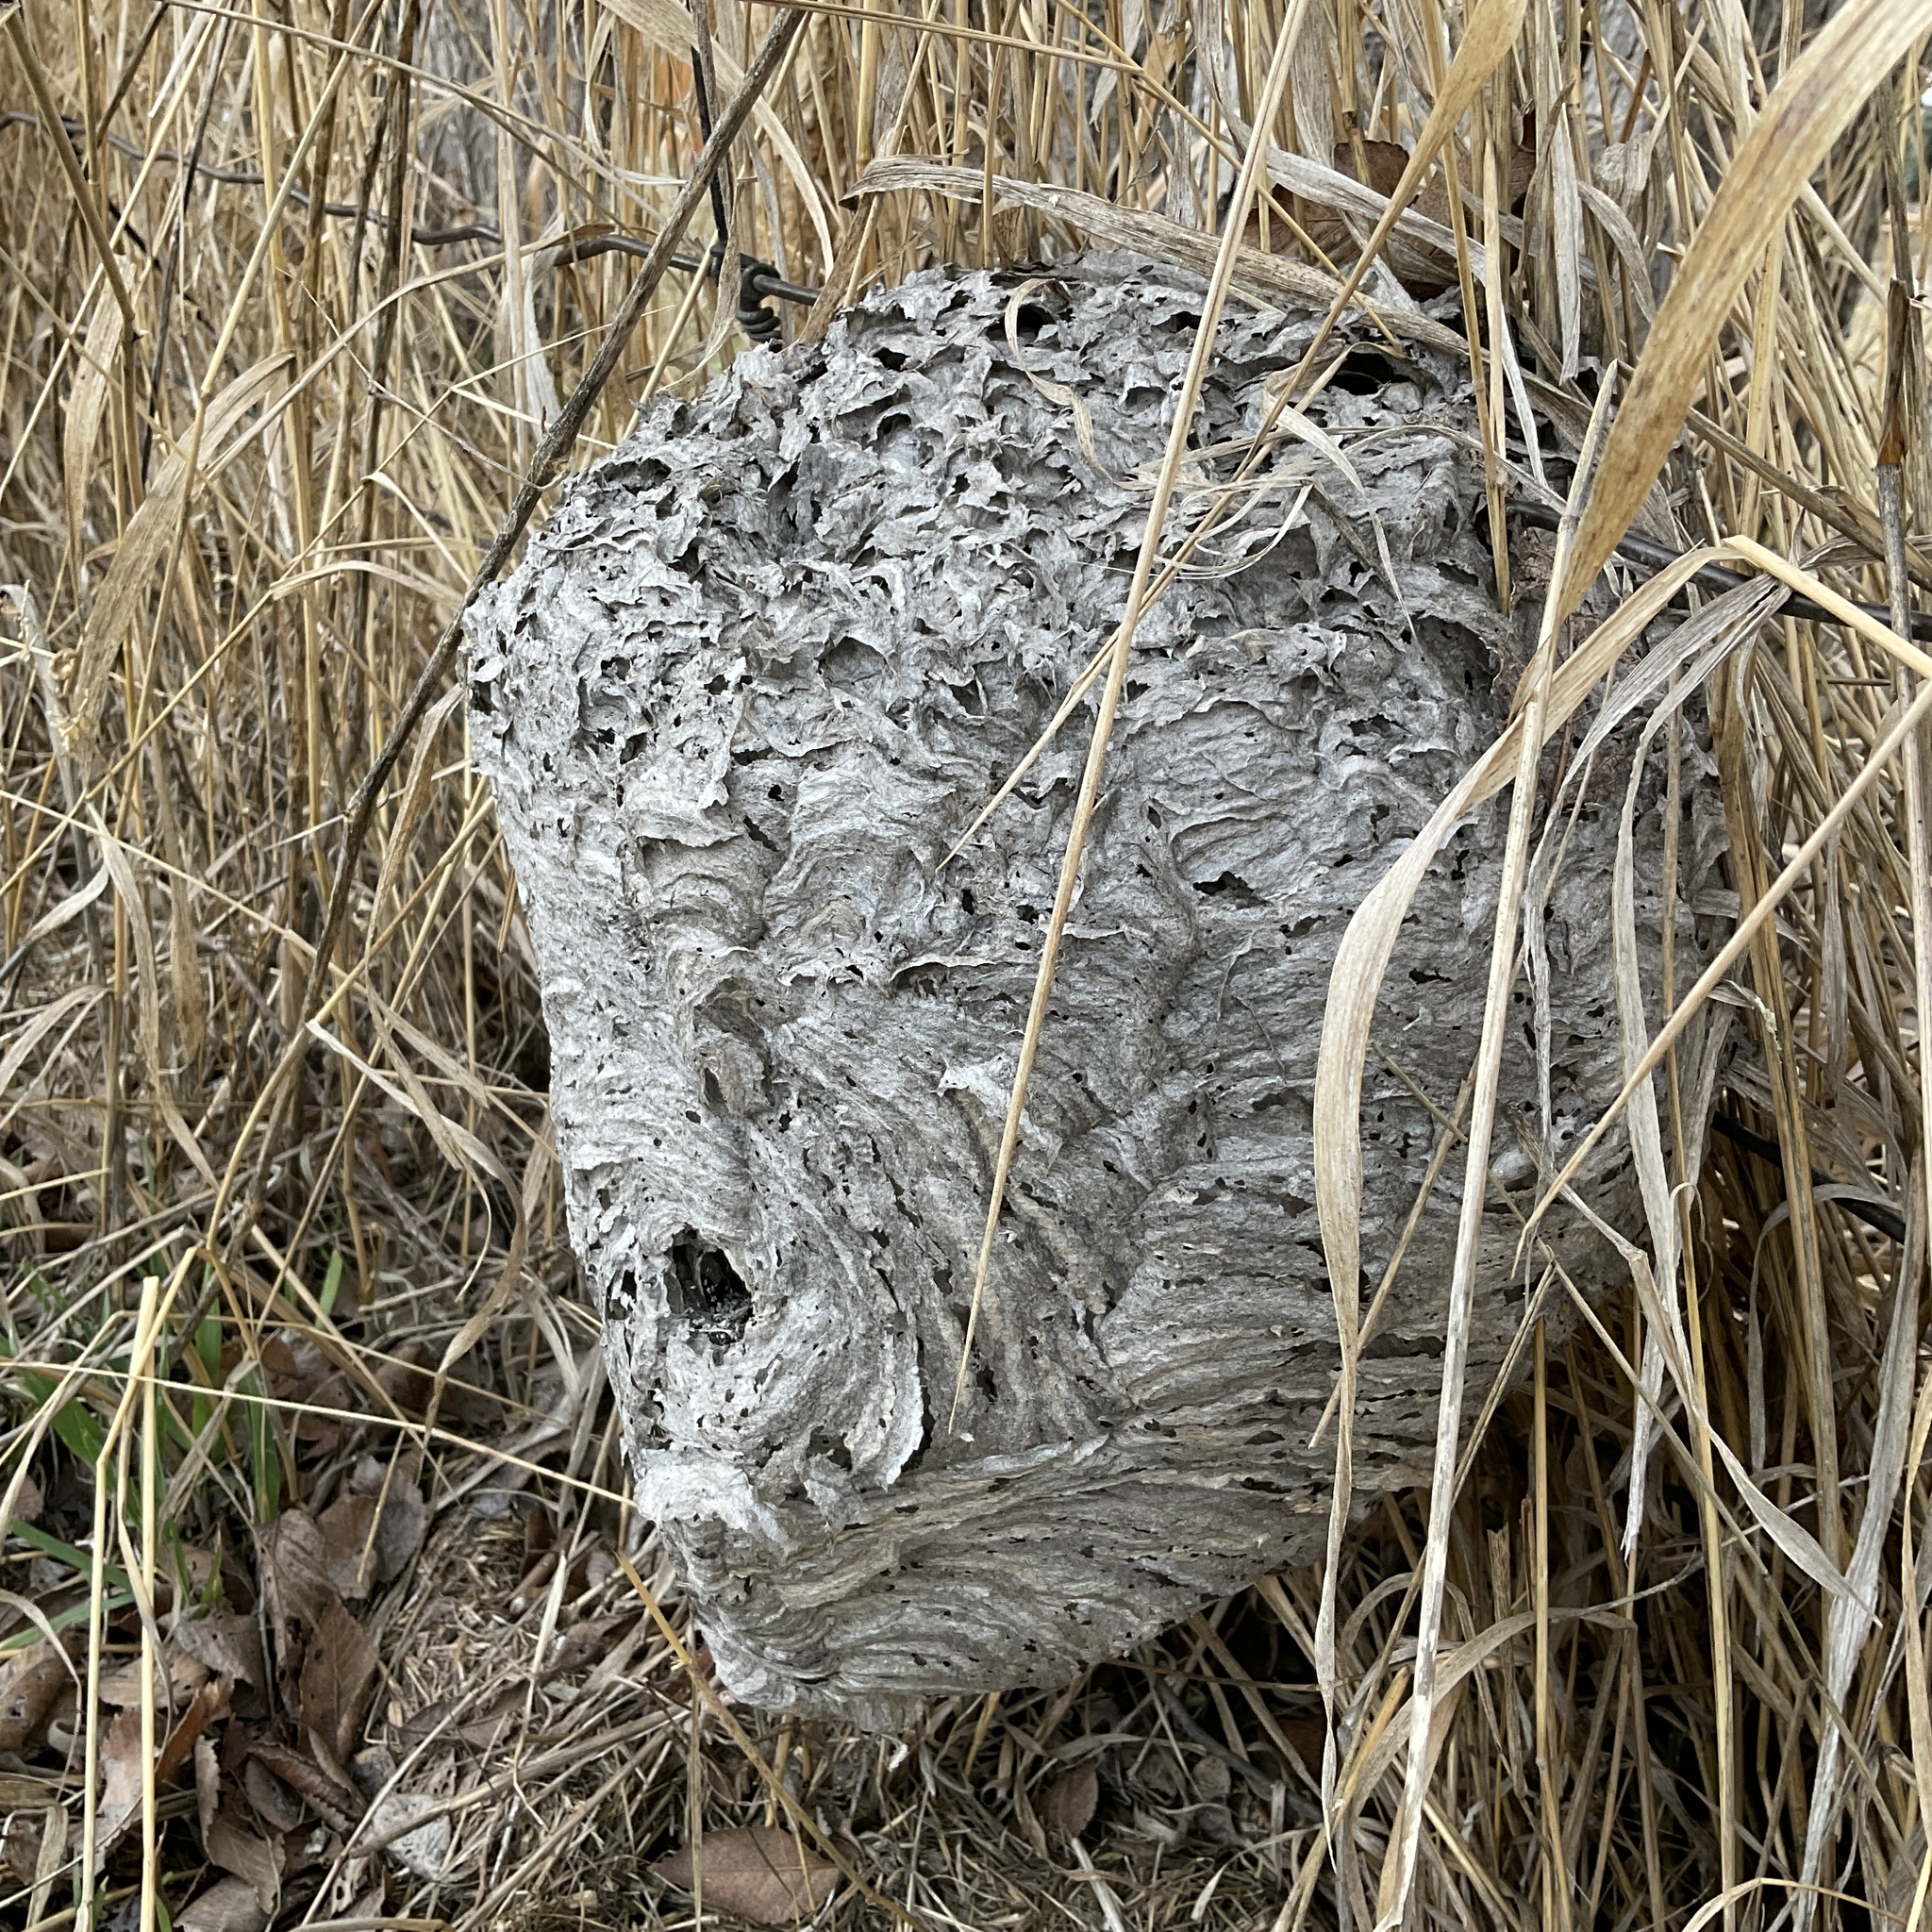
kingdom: Animalia
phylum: Arthropoda
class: Insecta
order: Hymenoptera
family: Vespidae
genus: Dolichovespula
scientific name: Dolichovespula maculata
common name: Bald-faced hornet
